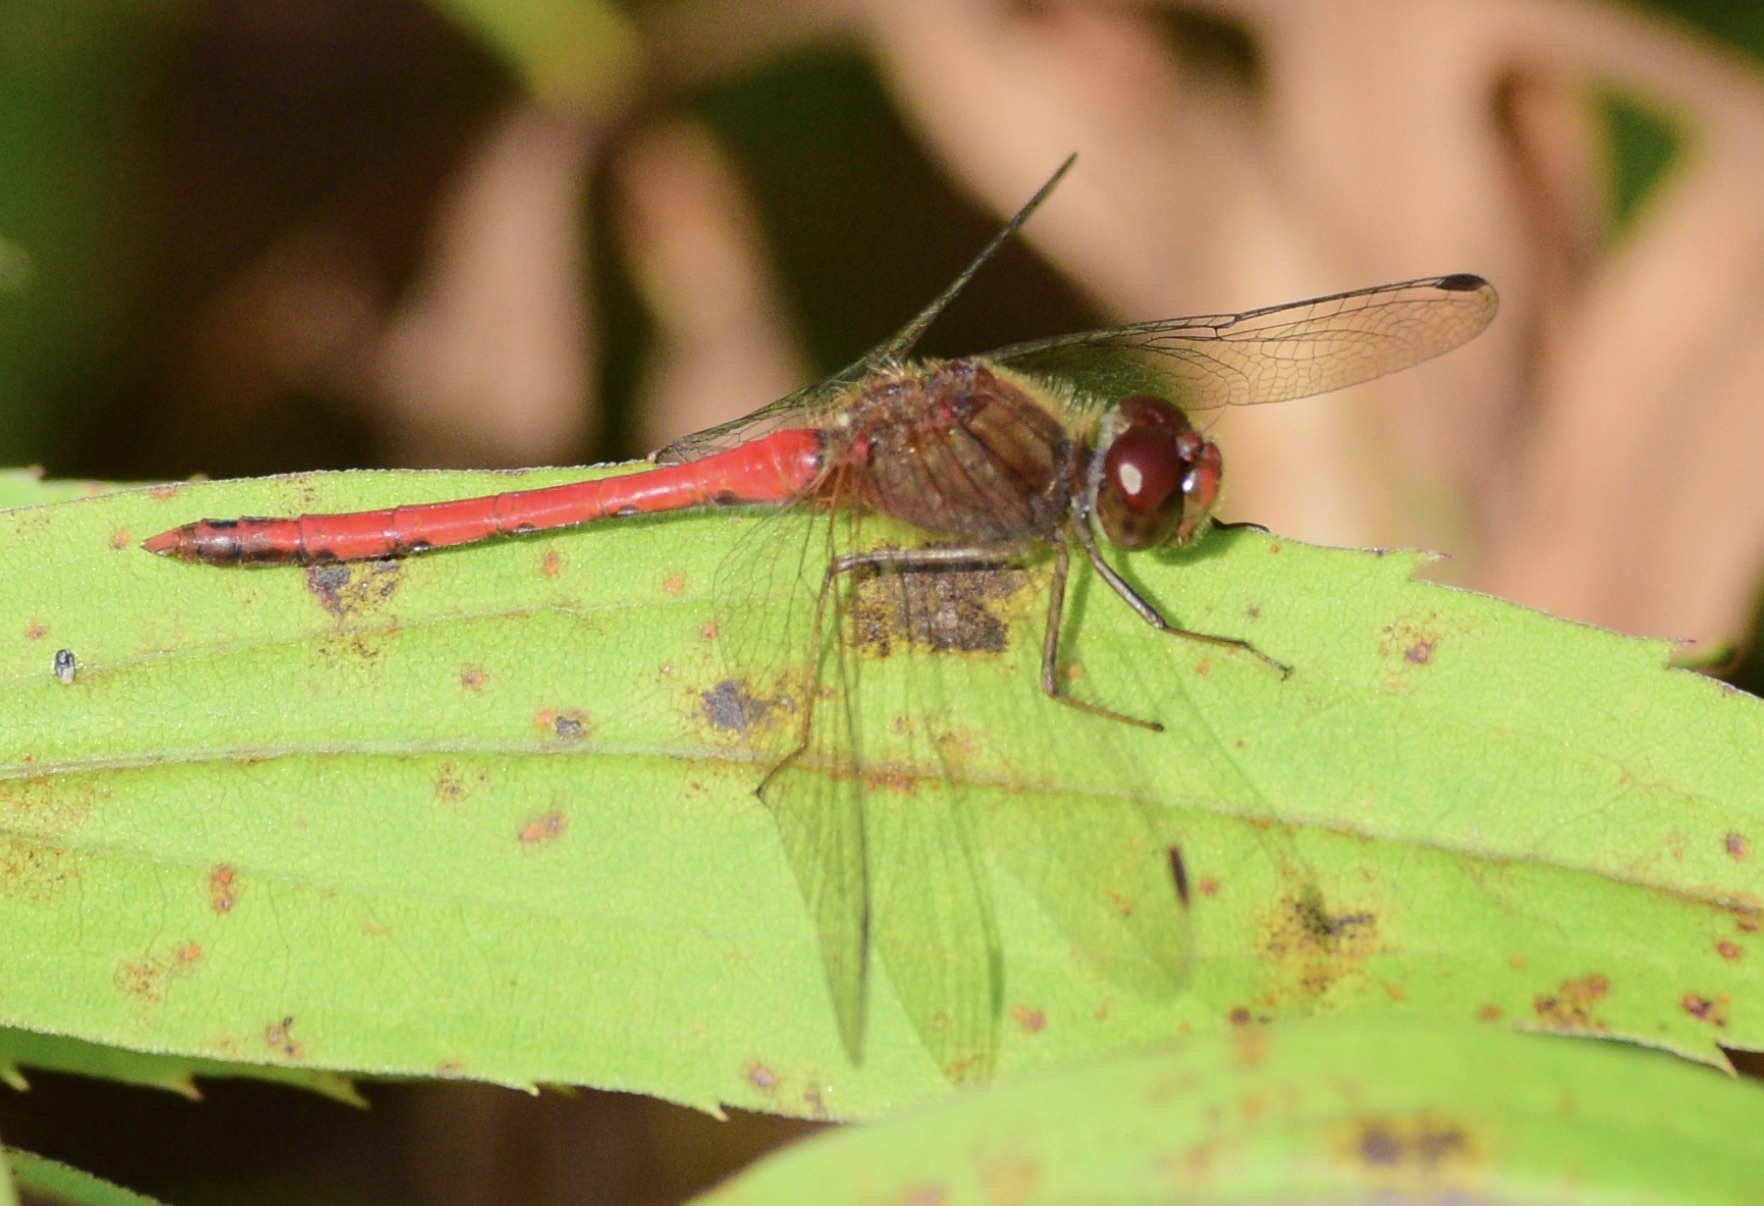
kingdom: Animalia
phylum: Arthropoda
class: Insecta
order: Odonata
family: Libellulidae
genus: Sympetrum
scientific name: Sympetrum vicinum
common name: Autumn meadowhawk
